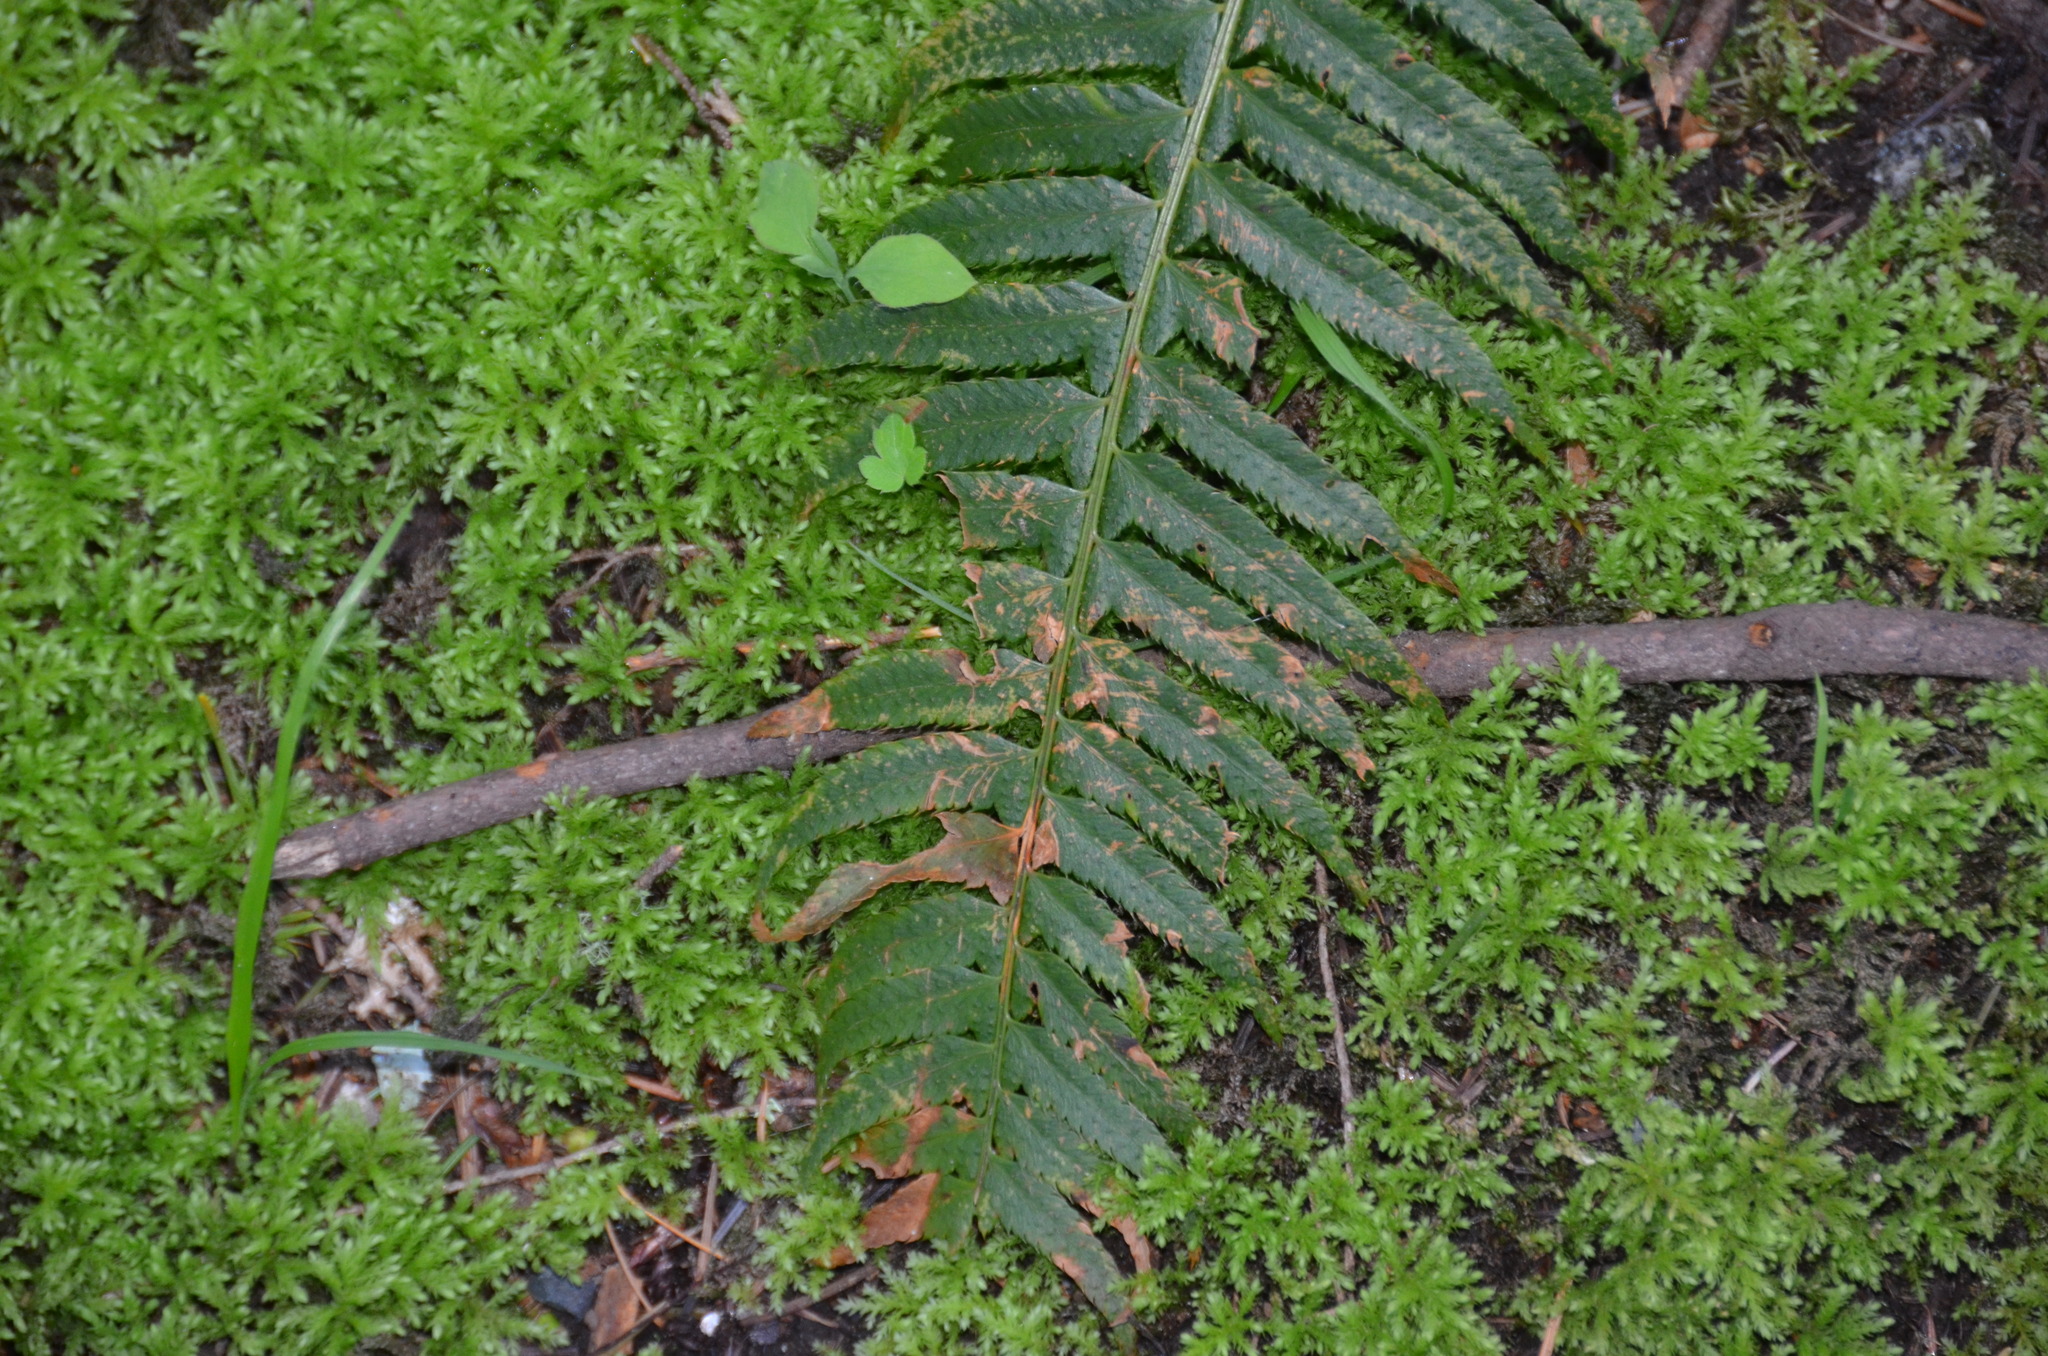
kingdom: Plantae
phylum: Tracheophyta
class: Polypodiopsida
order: Polypodiales
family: Dryopteridaceae
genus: Polystichum
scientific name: Polystichum munitum
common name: Western sword-fern
